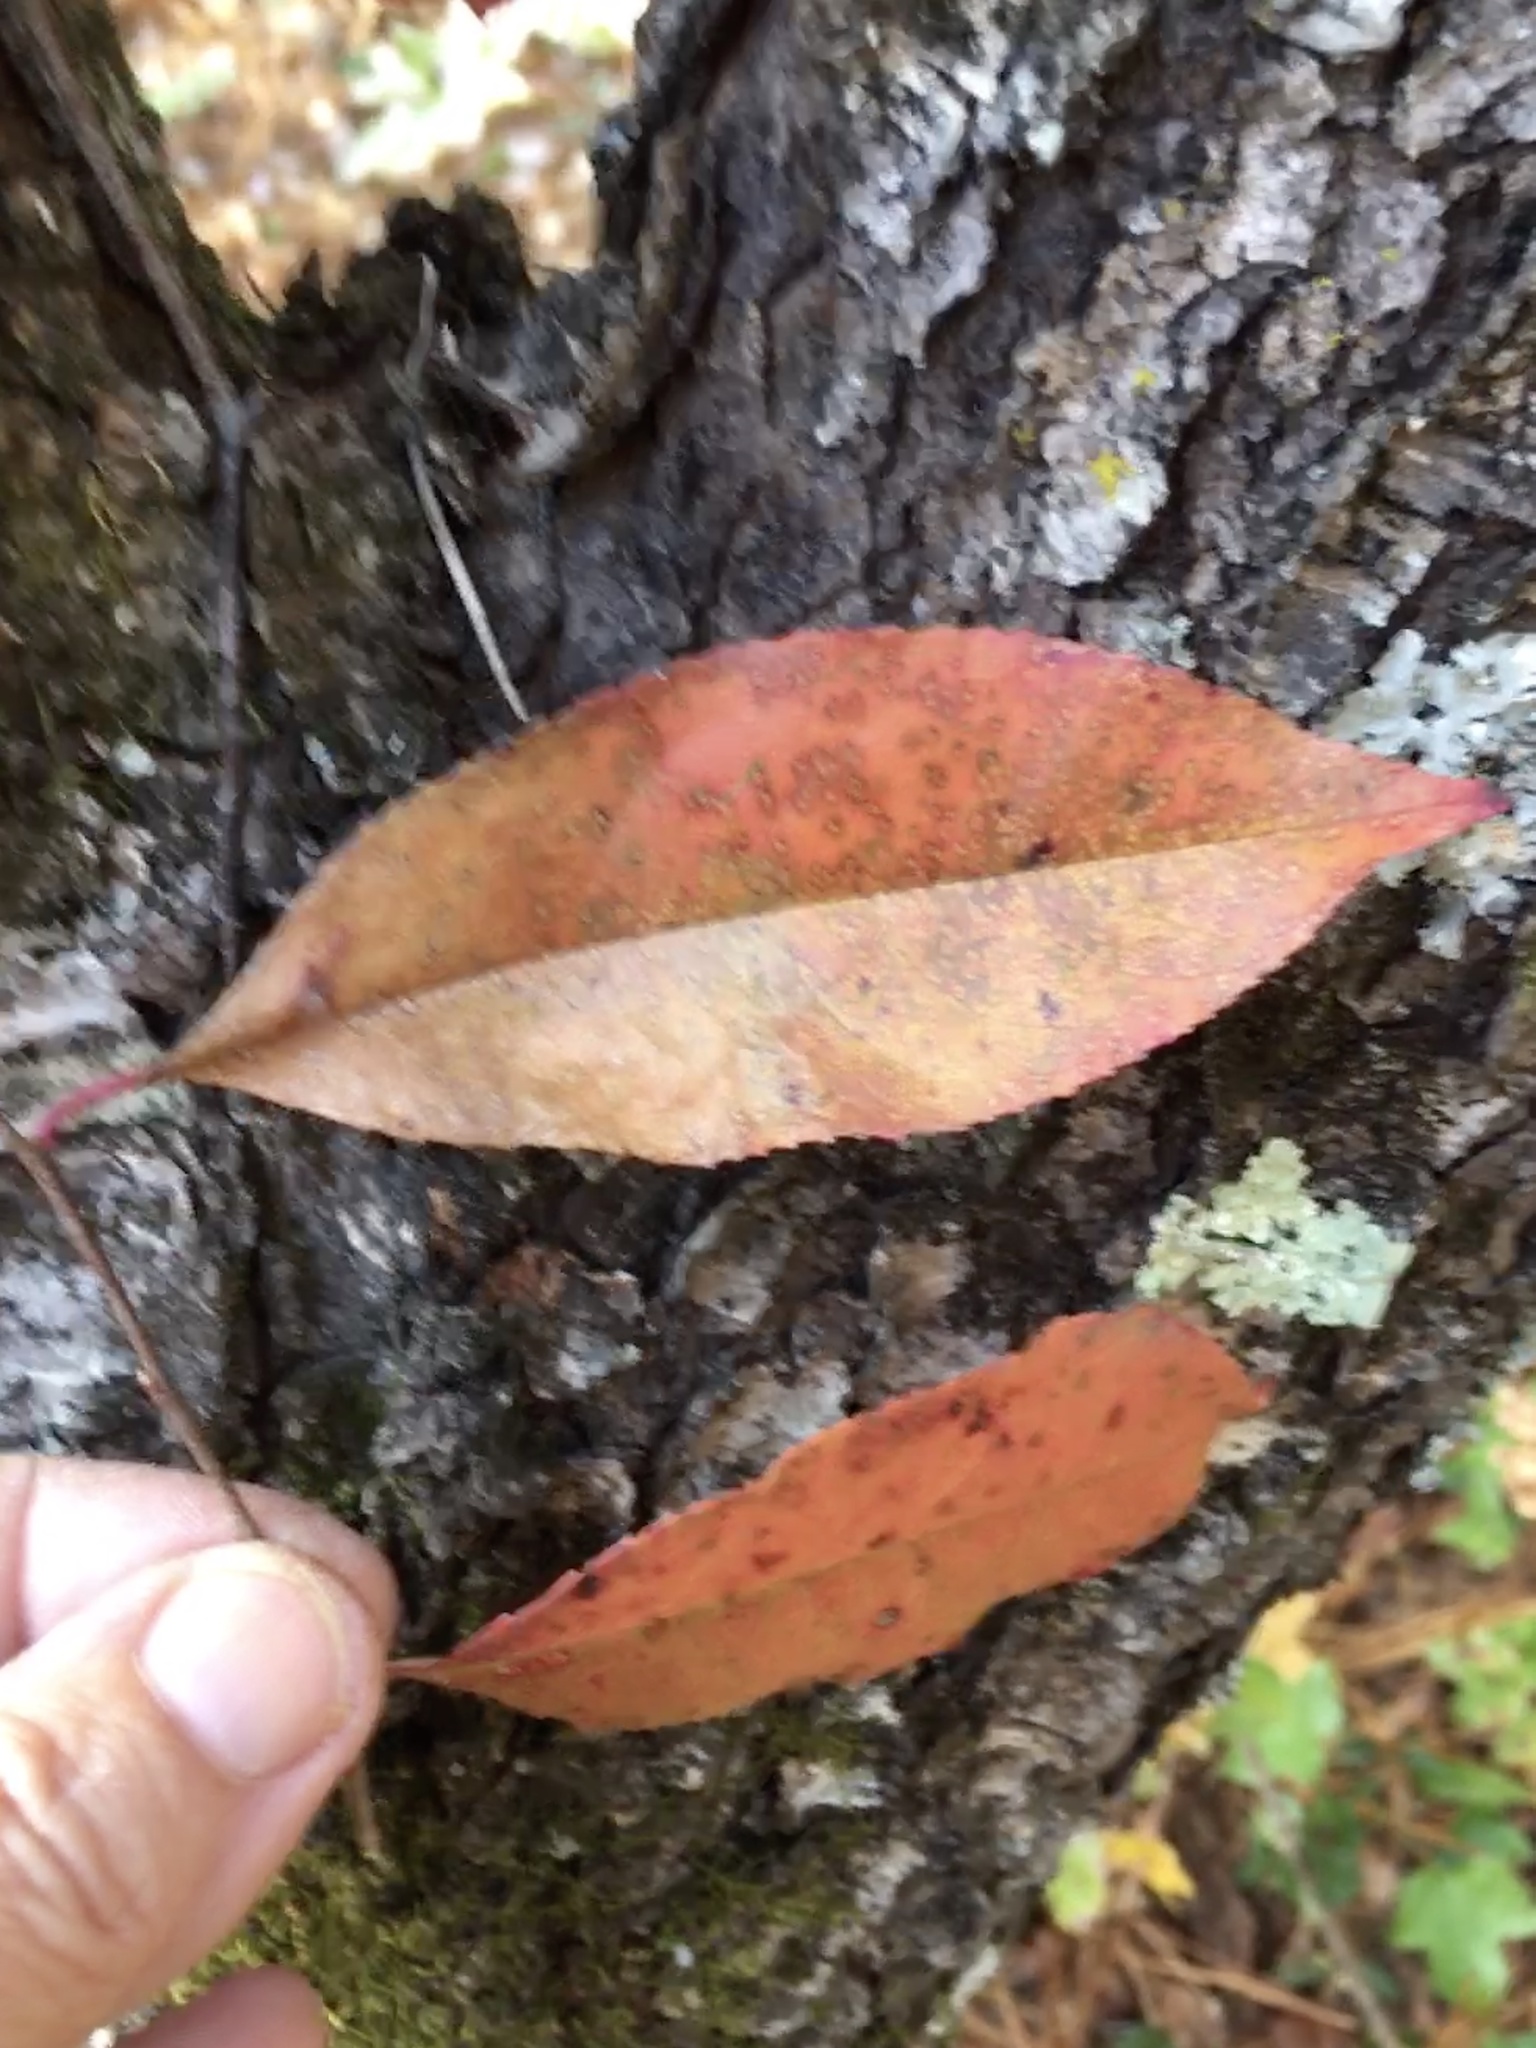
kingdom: Plantae
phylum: Tracheophyta
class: Magnoliopsida
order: Rosales
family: Rosaceae
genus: Prunus
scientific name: Prunus serotina
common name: Black cherry
